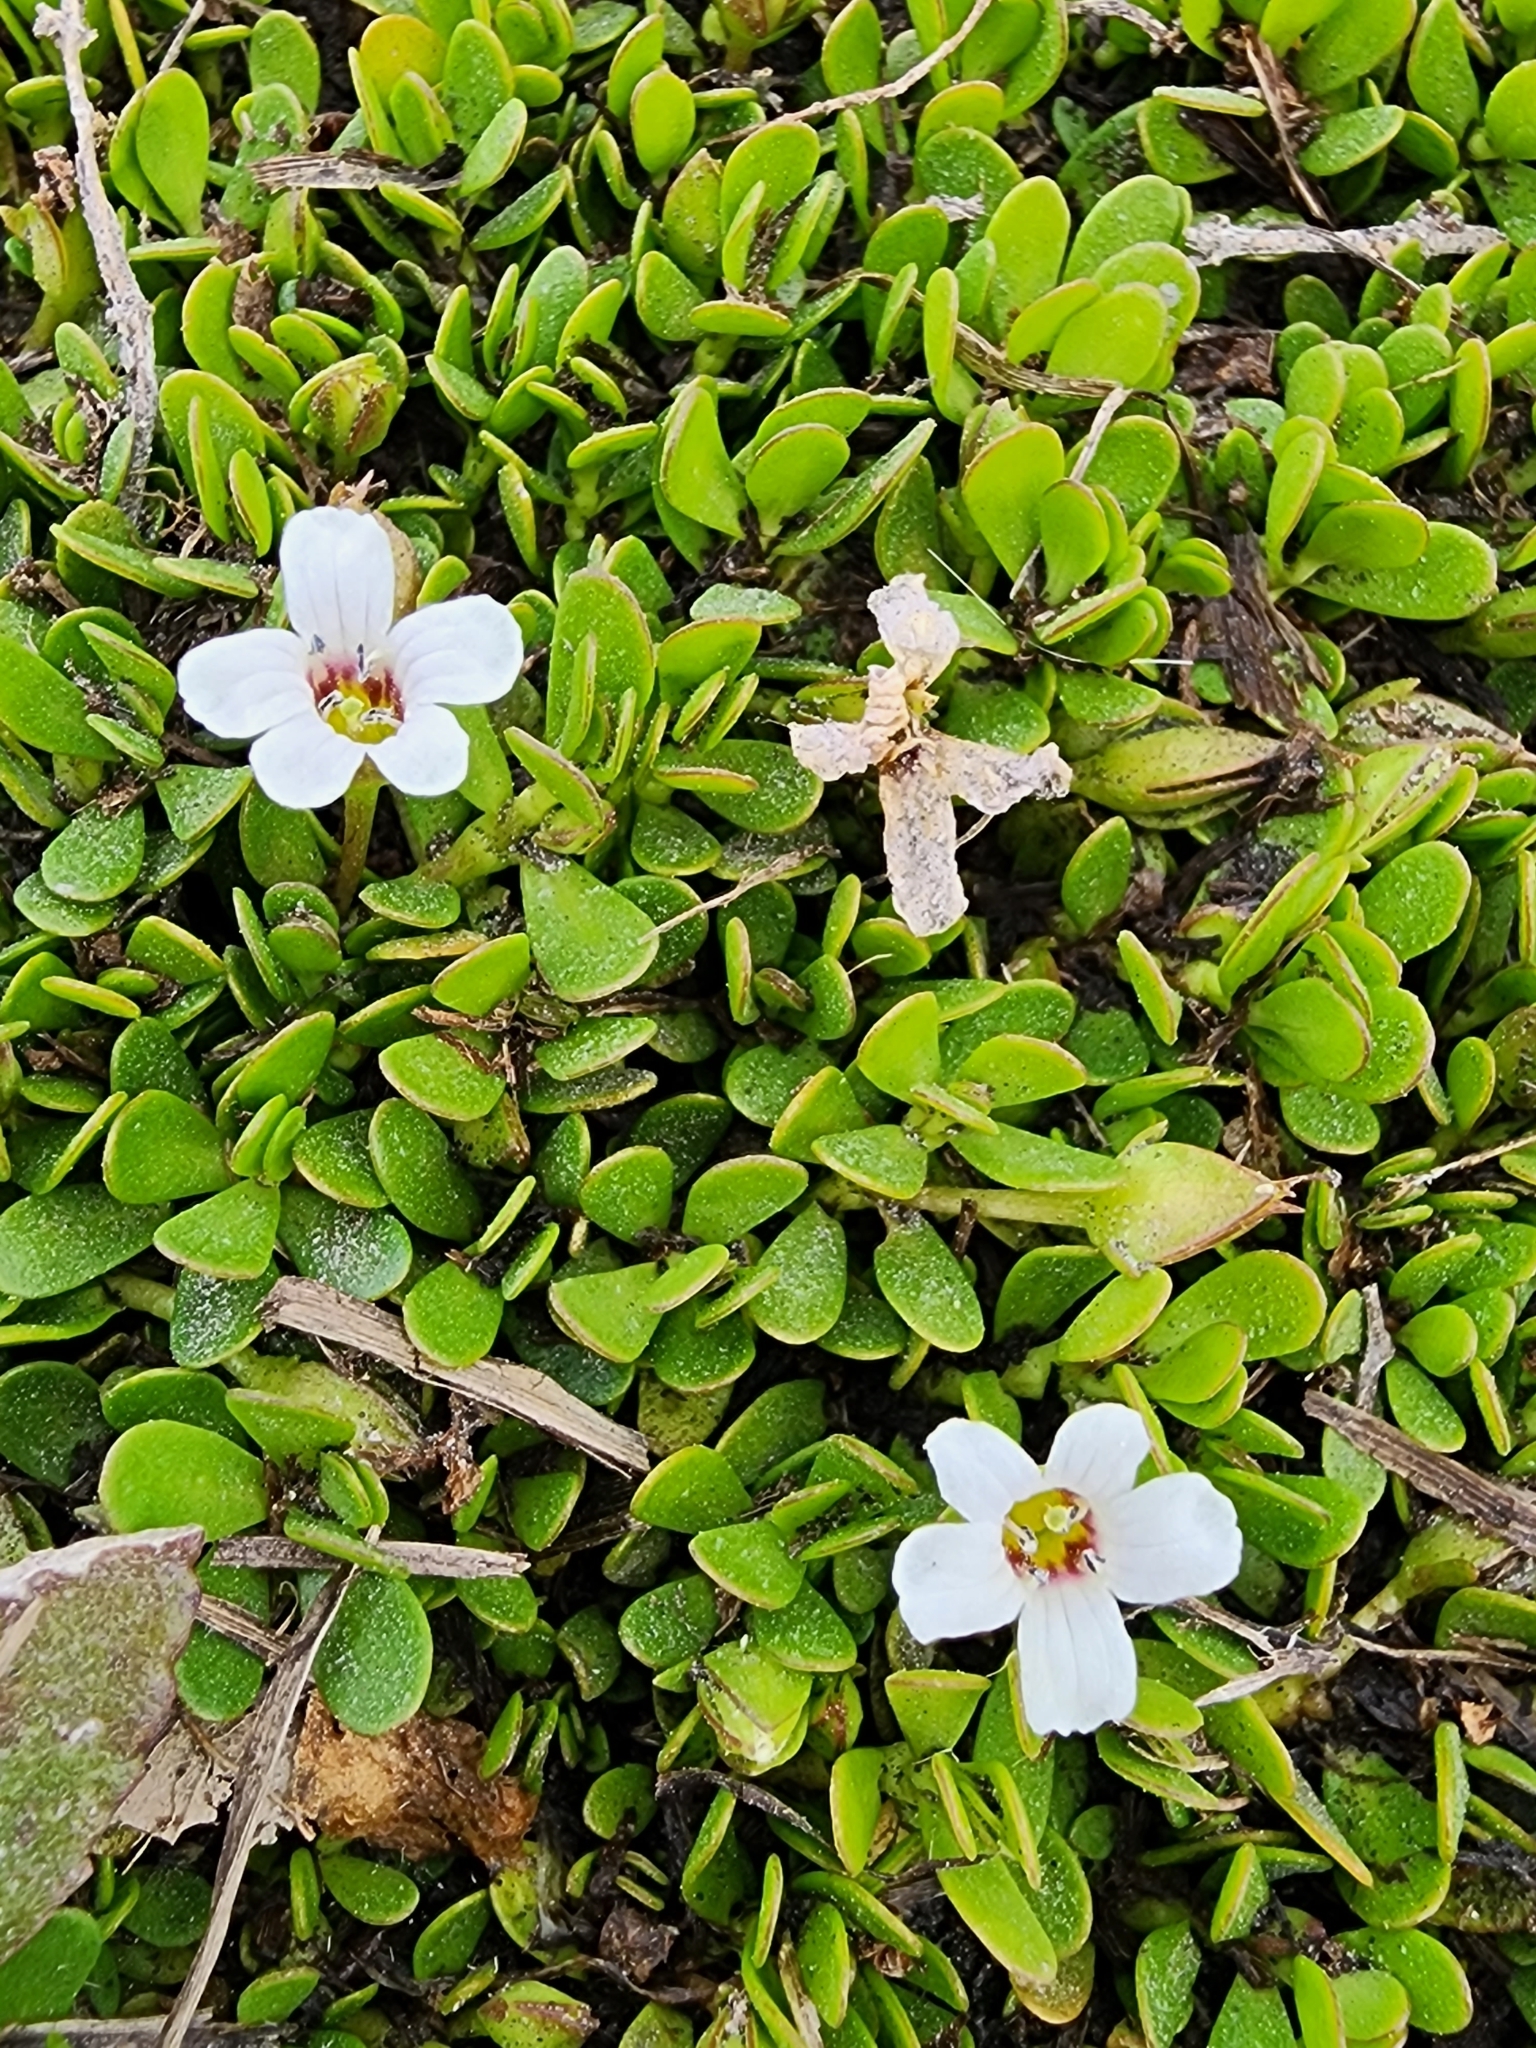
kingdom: Plantae
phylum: Tracheophyta
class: Magnoliopsida
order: Lamiales
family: Plantaginaceae
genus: Bacopa
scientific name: Bacopa monnieri
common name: Indian-pennywort
